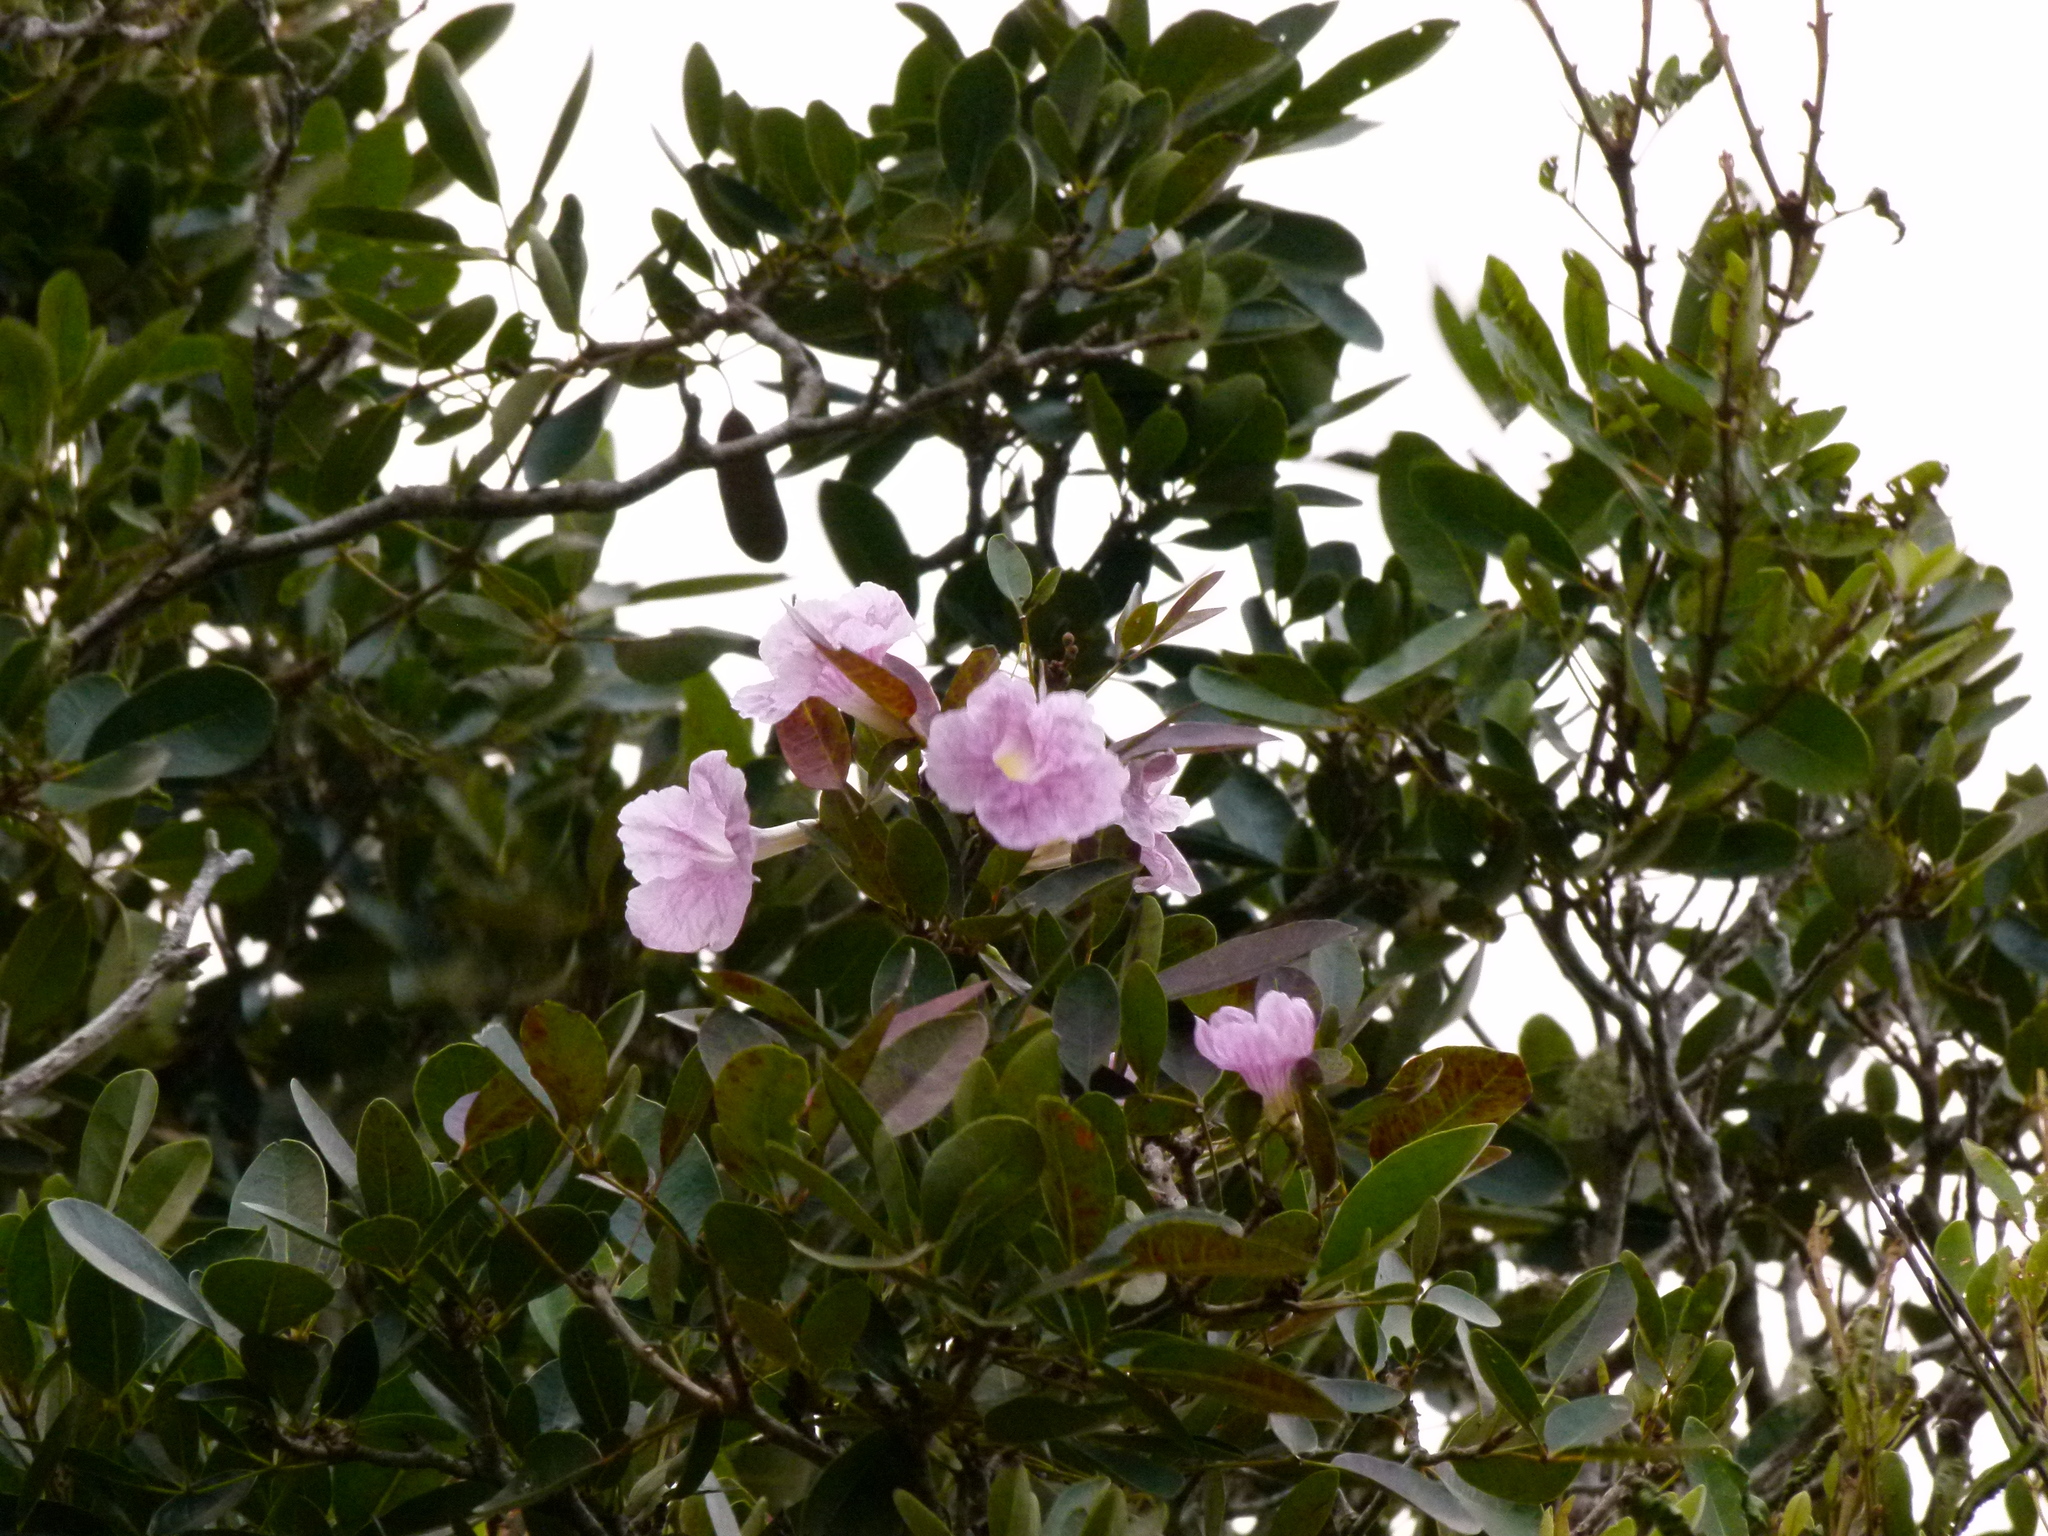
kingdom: Plantae
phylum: Tracheophyta
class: Magnoliopsida
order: Lamiales
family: Bignoniaceae
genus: Tabebuia
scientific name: Tabebuia heterophylla
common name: White cedar
